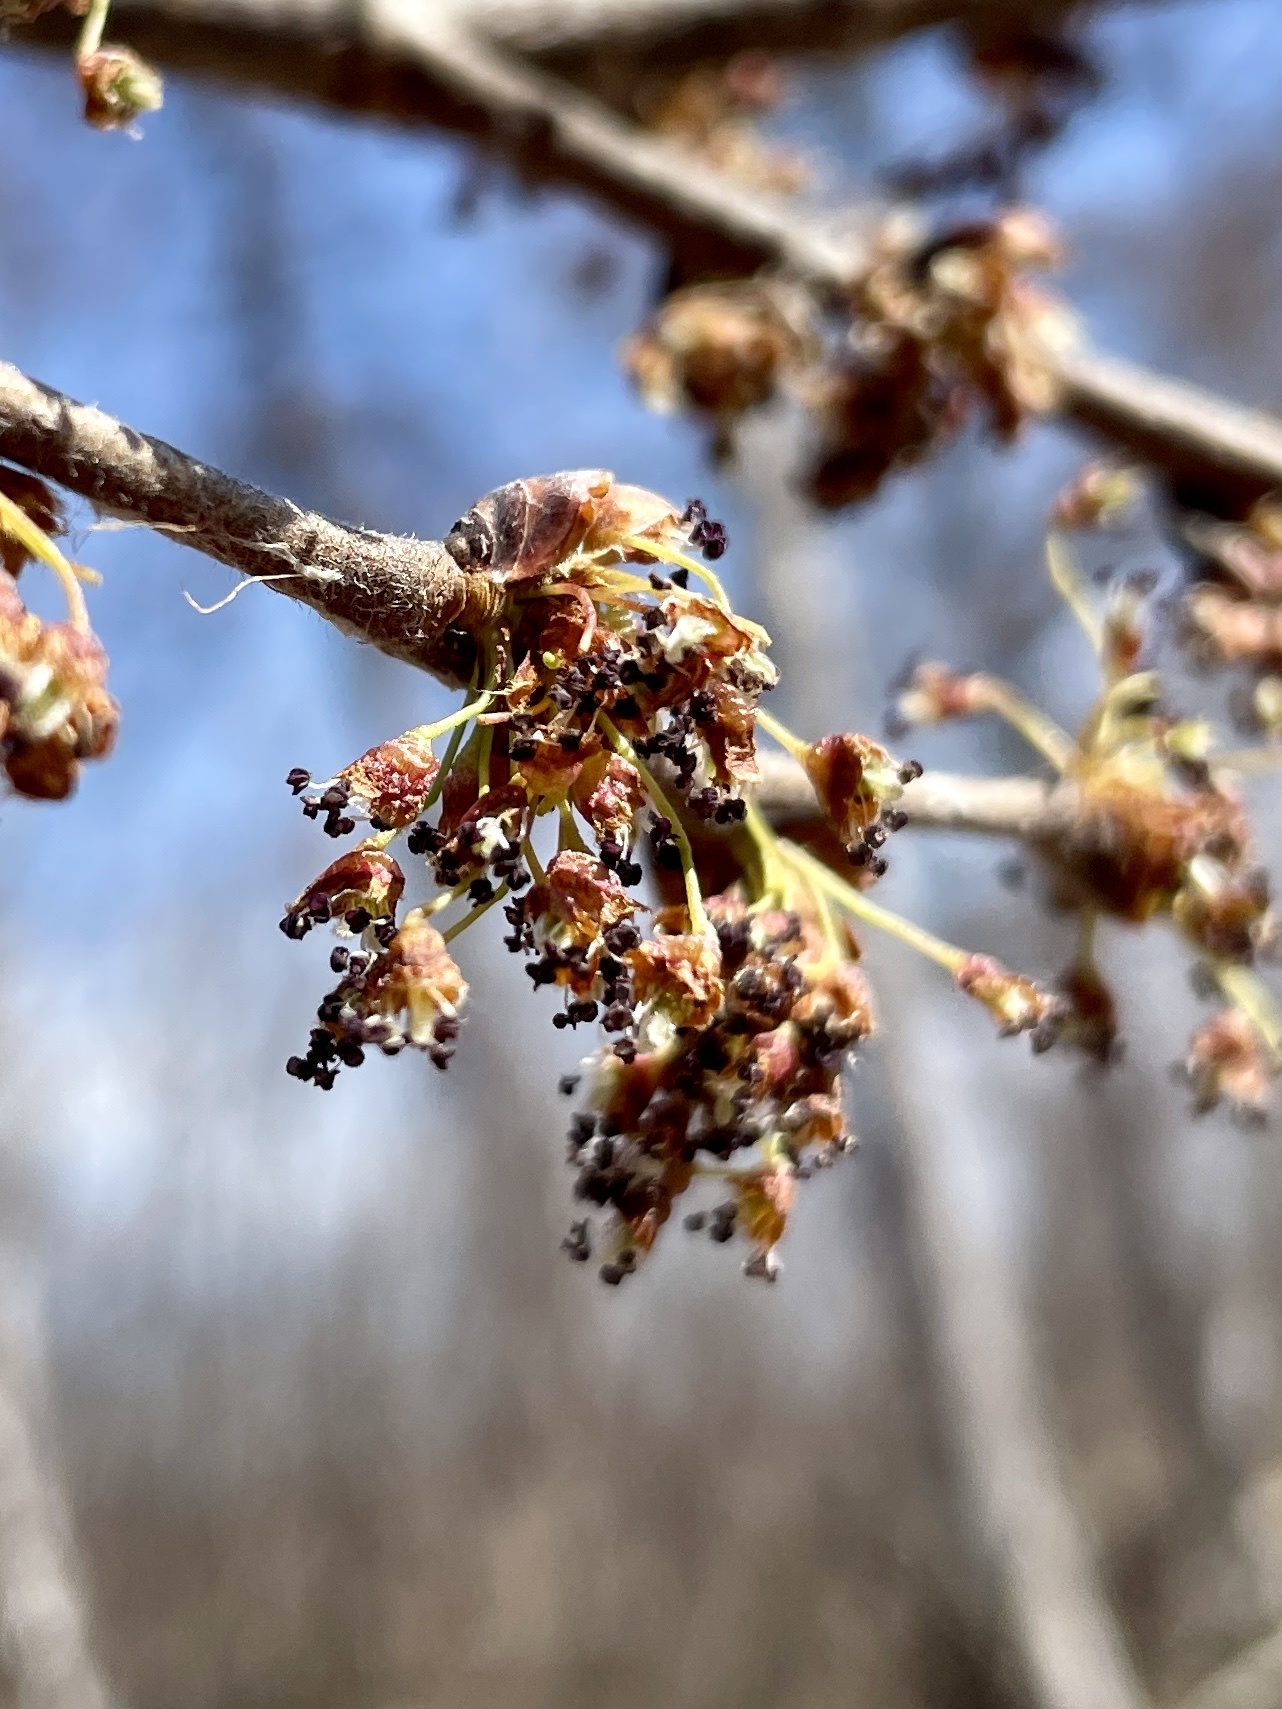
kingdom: Plantae
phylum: Tracheophyta
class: Magnoliopsida
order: Rosales
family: Ulmaceae
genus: Ulmus
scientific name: Ulmus americana
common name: American elm
